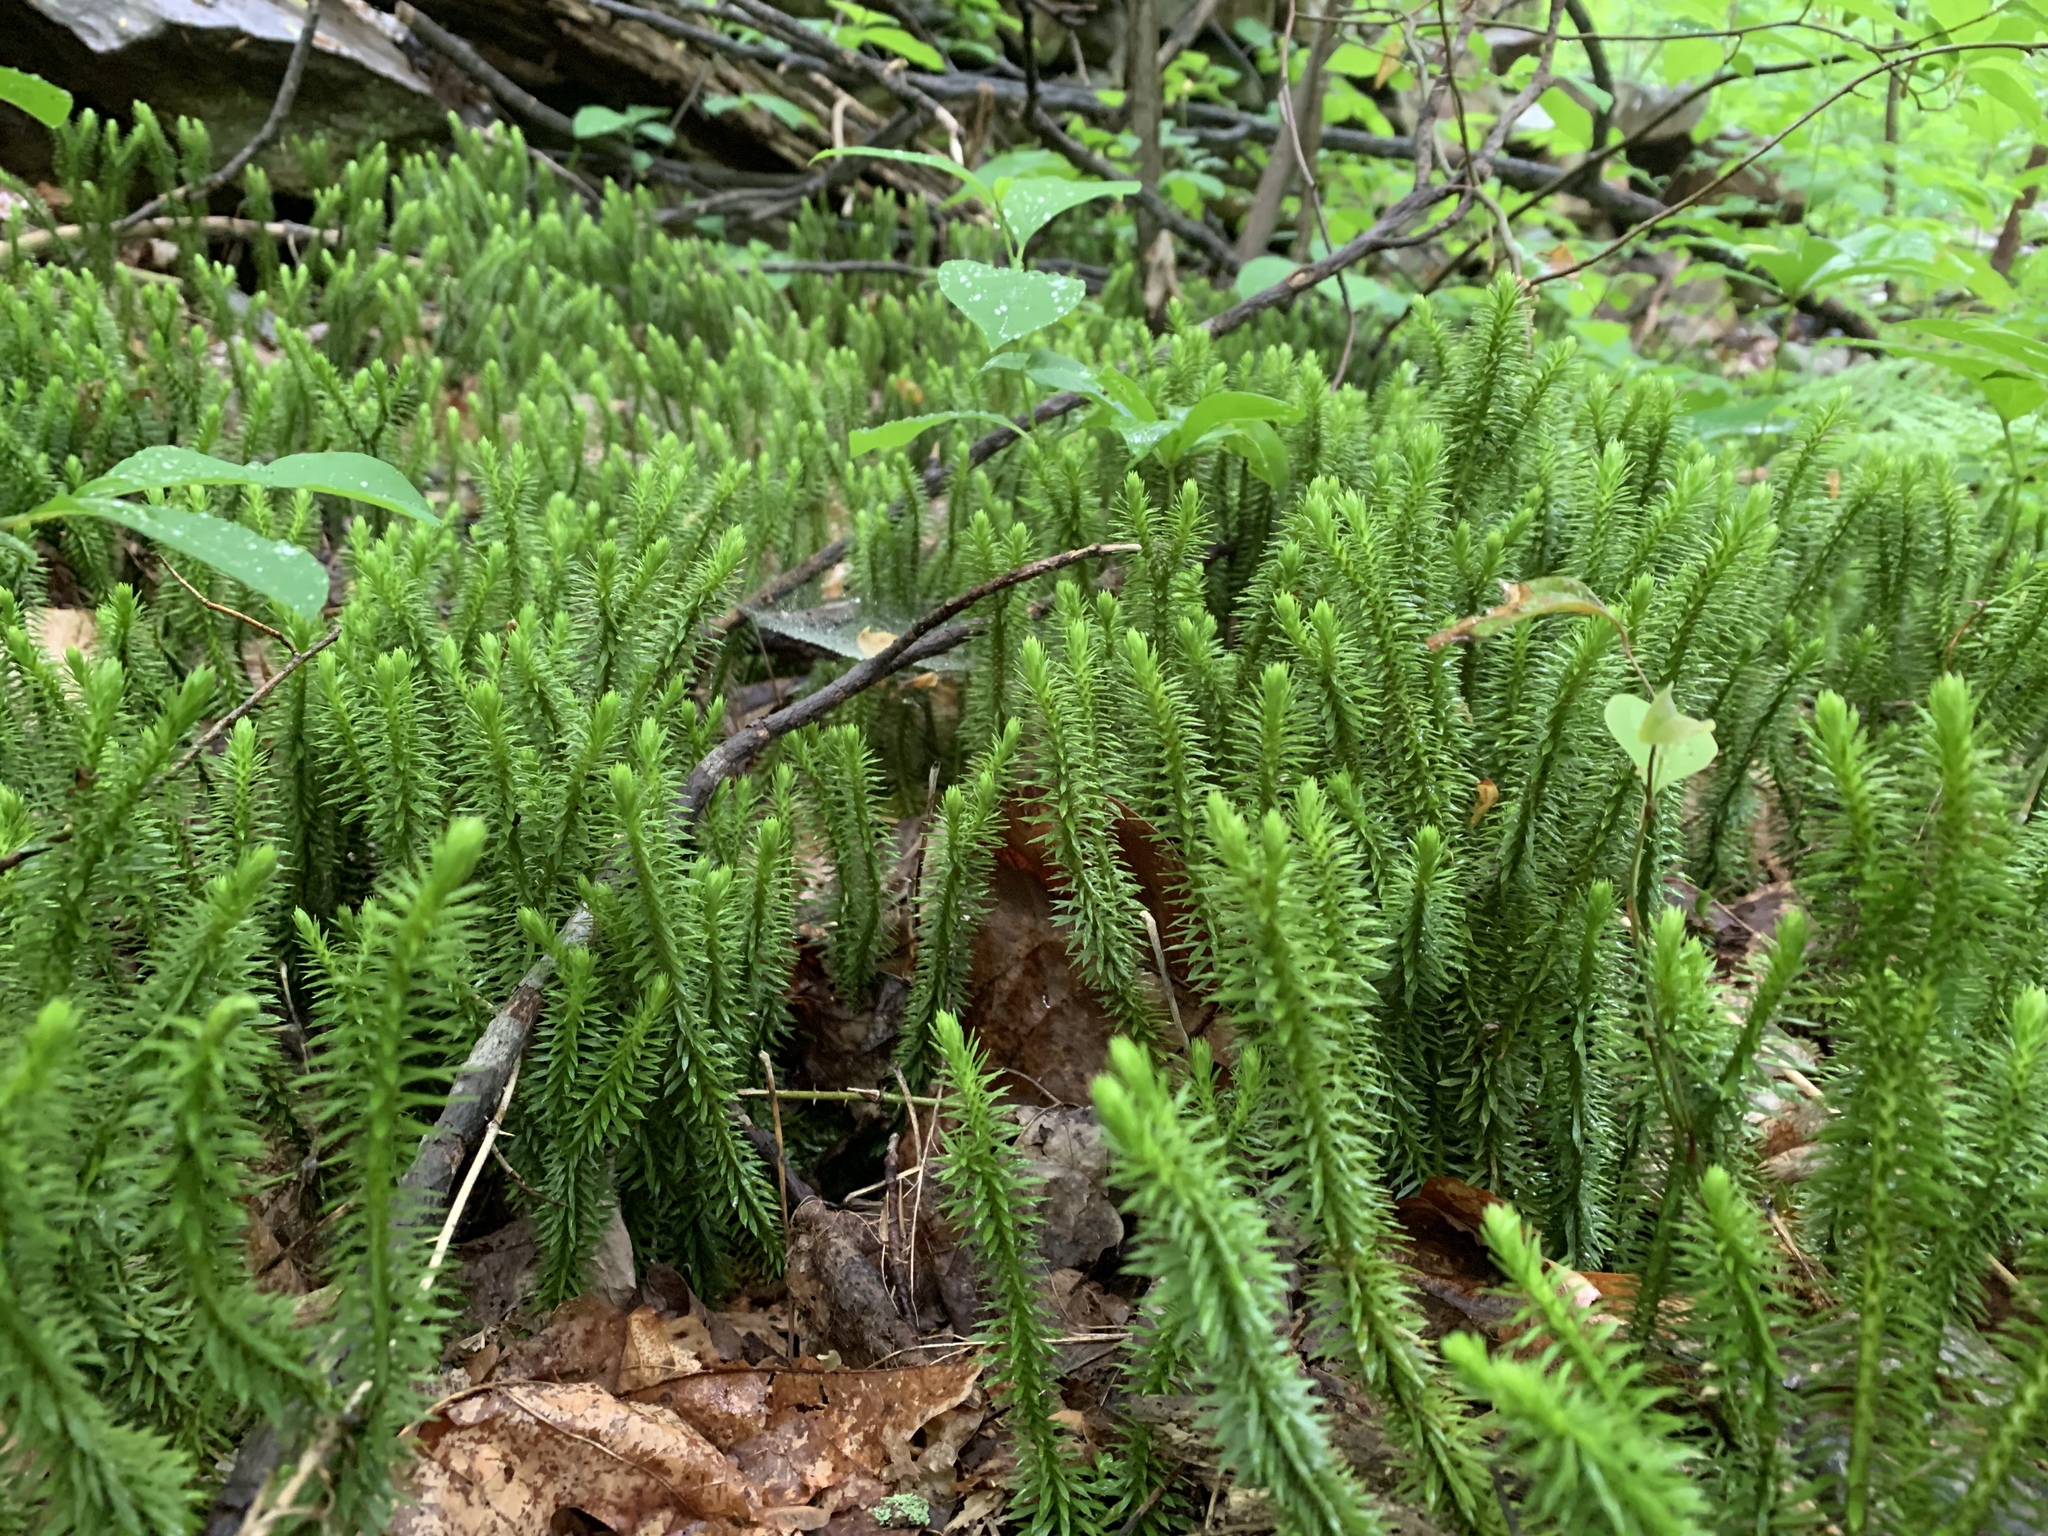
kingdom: Plantae
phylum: Tracheophyta
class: Lycopodiopsida
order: Lycopodiales
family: Lycopodiaceae
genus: Huperzia
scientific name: Huperzia lucidula
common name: Shining clubmoss
